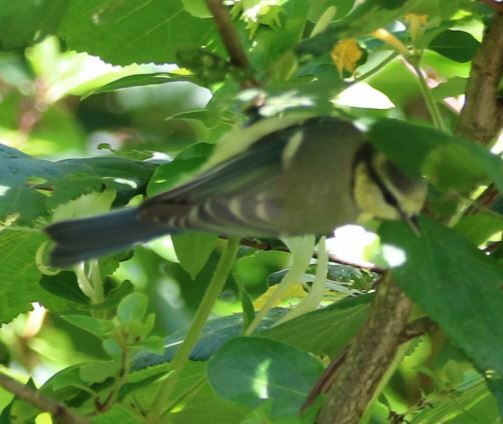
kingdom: Animalia
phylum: Chordata
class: Aves
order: Passeriformes
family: Paridae
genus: Cyanistes
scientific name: Cyanistes caeruleus
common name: Eurasian blue tit
